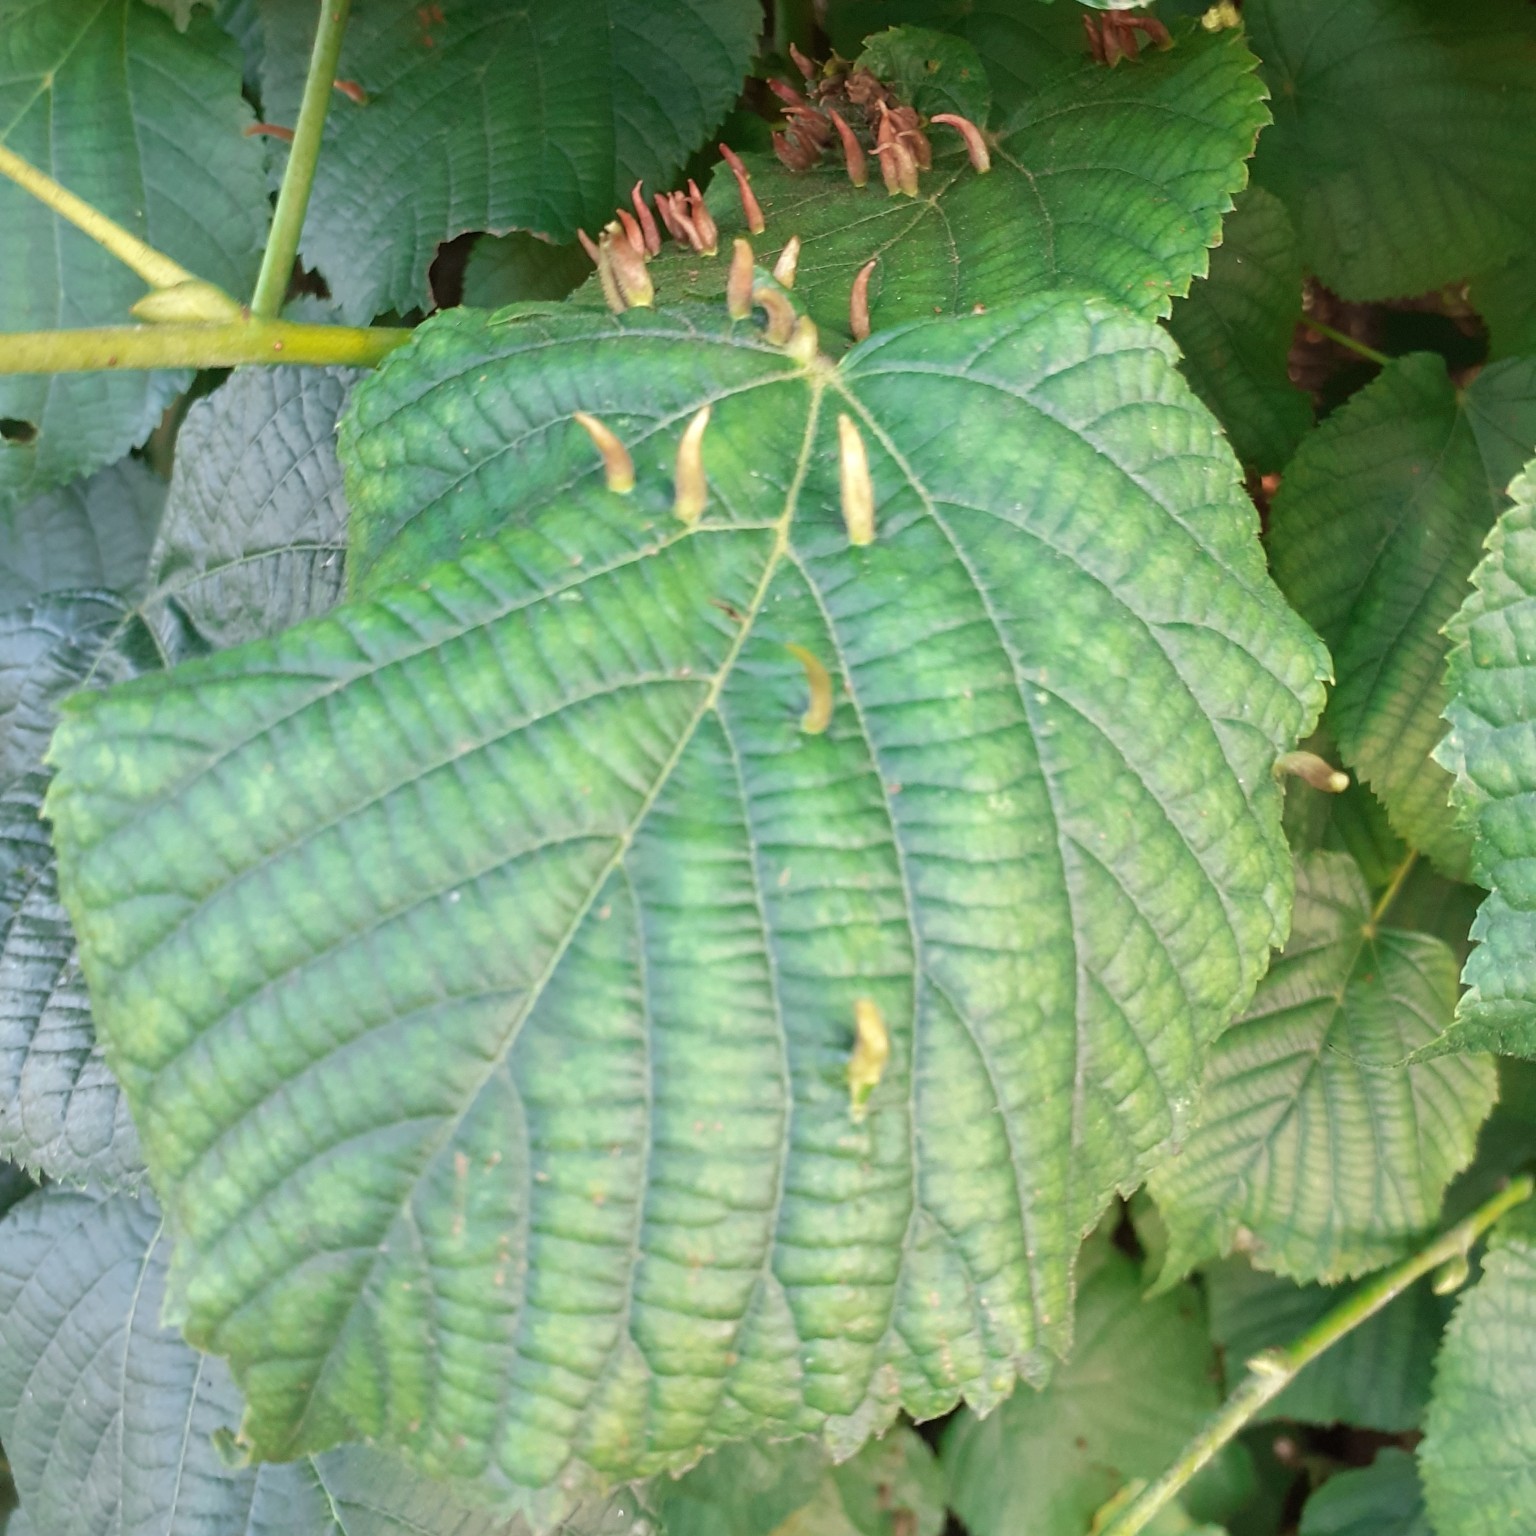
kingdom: Animalia
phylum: Arthropoda
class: Arachnida
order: Trombidiformes
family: Eriophyidae
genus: Eriophyes
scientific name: Eriophyes tiliae
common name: Red nail gall mite
